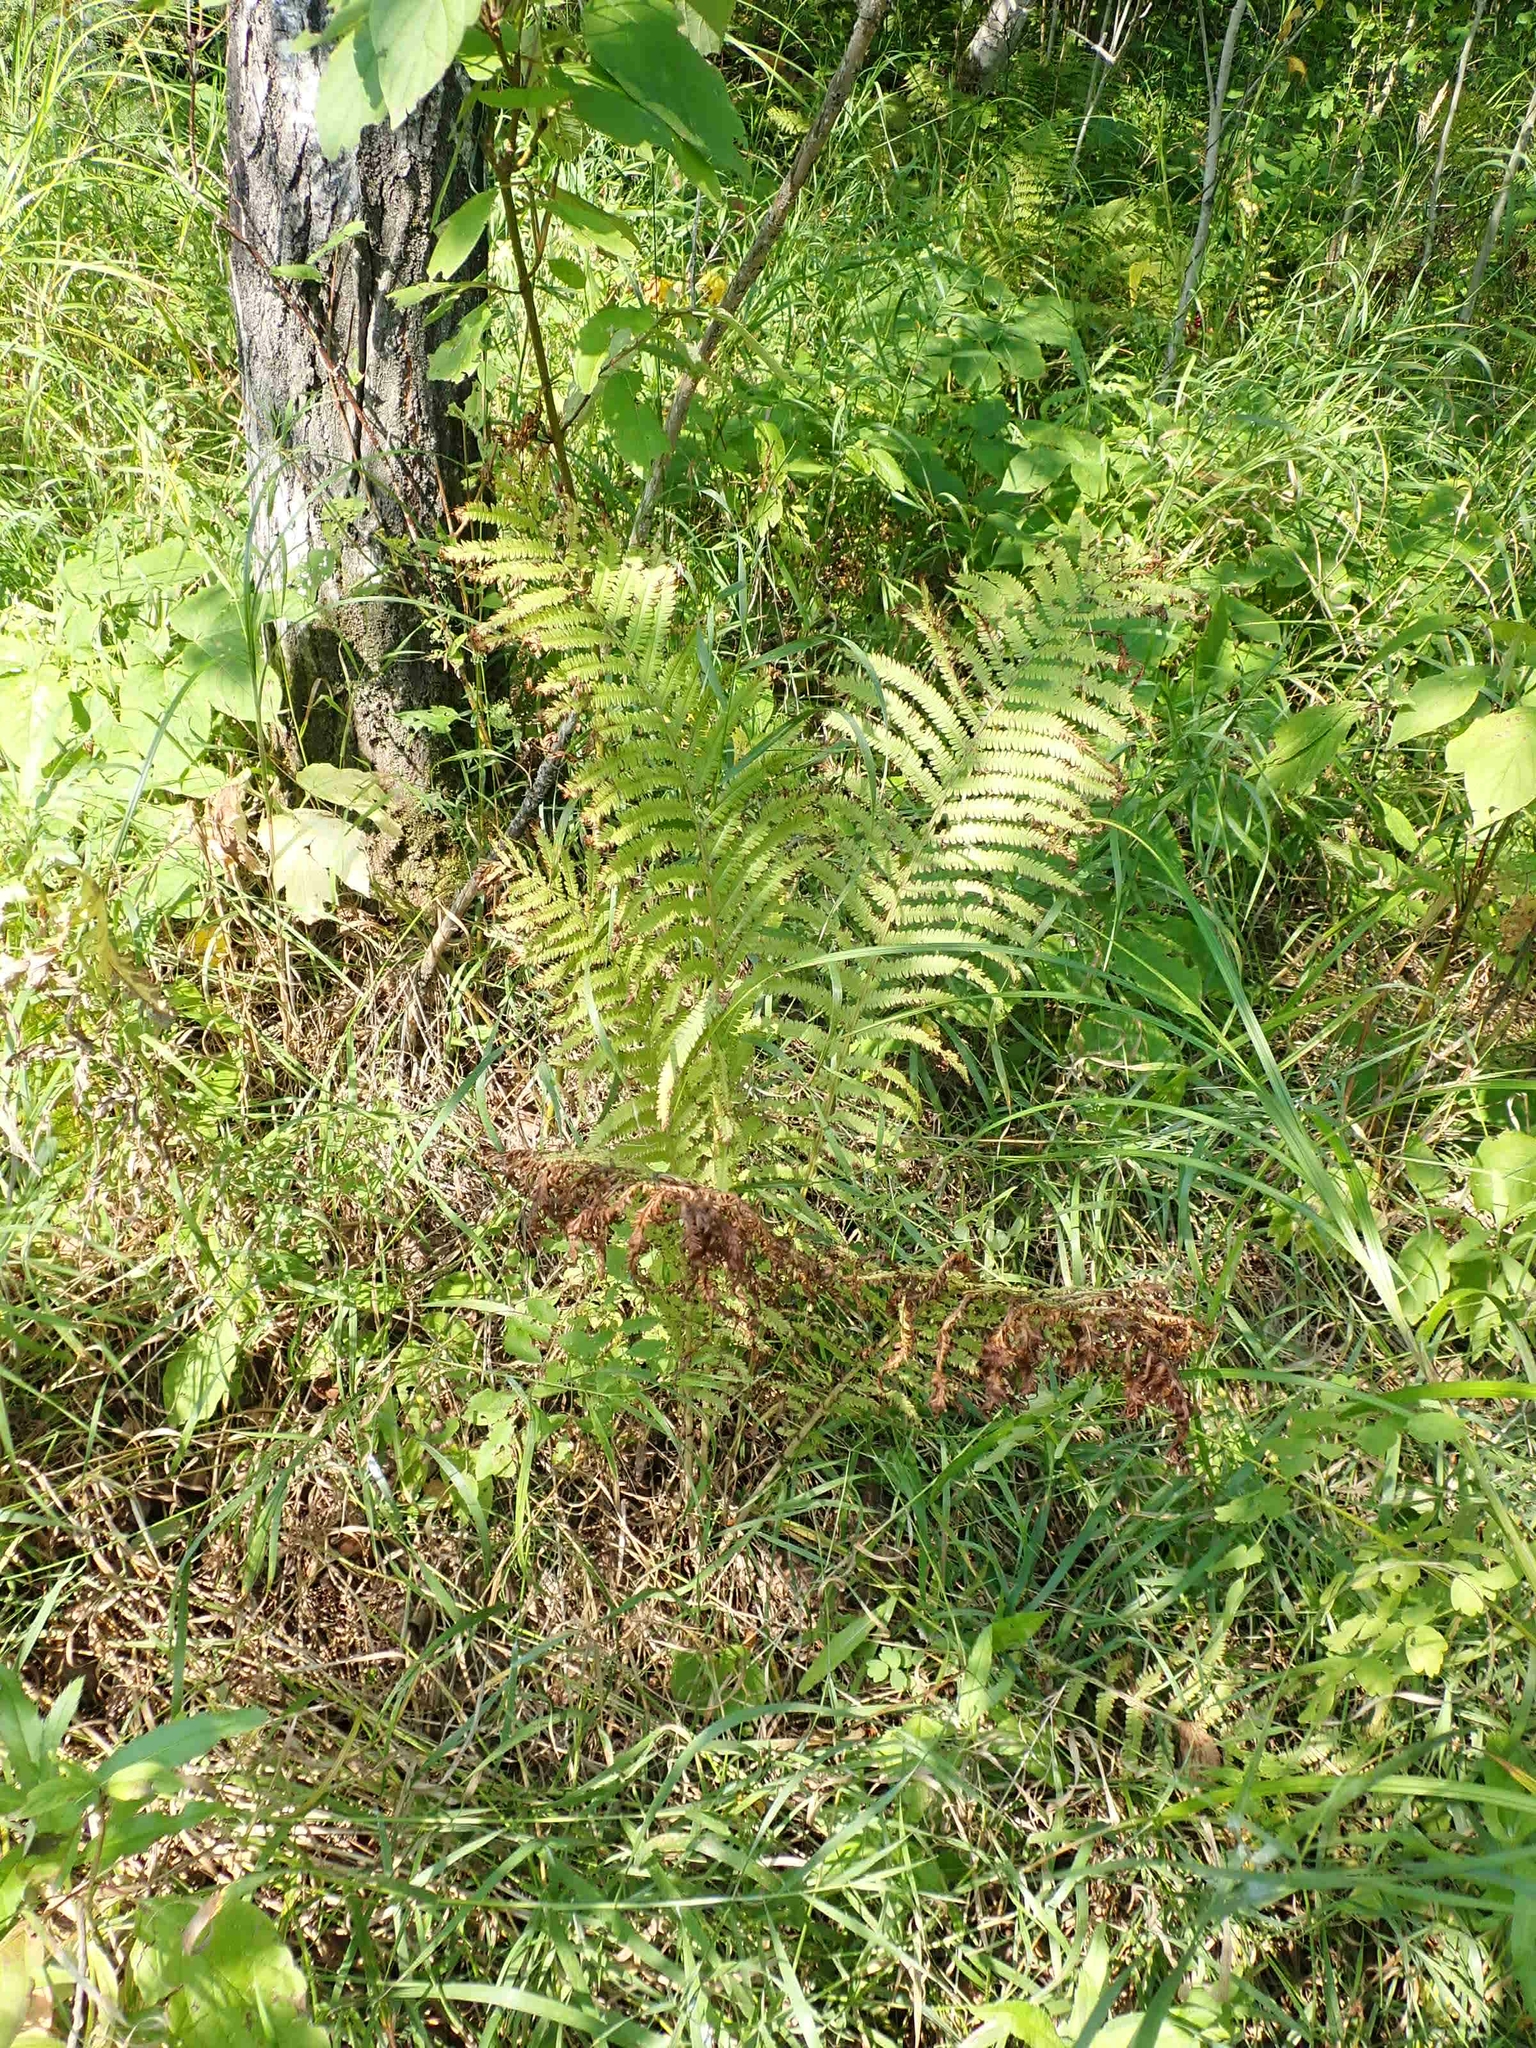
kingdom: Plantae
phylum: Tracheophyta
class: Polypodiopsida
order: Polypodiales
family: Onocleaceae
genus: Matteuccia
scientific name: Matteuccia struthiopteris
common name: Ostrich fern
